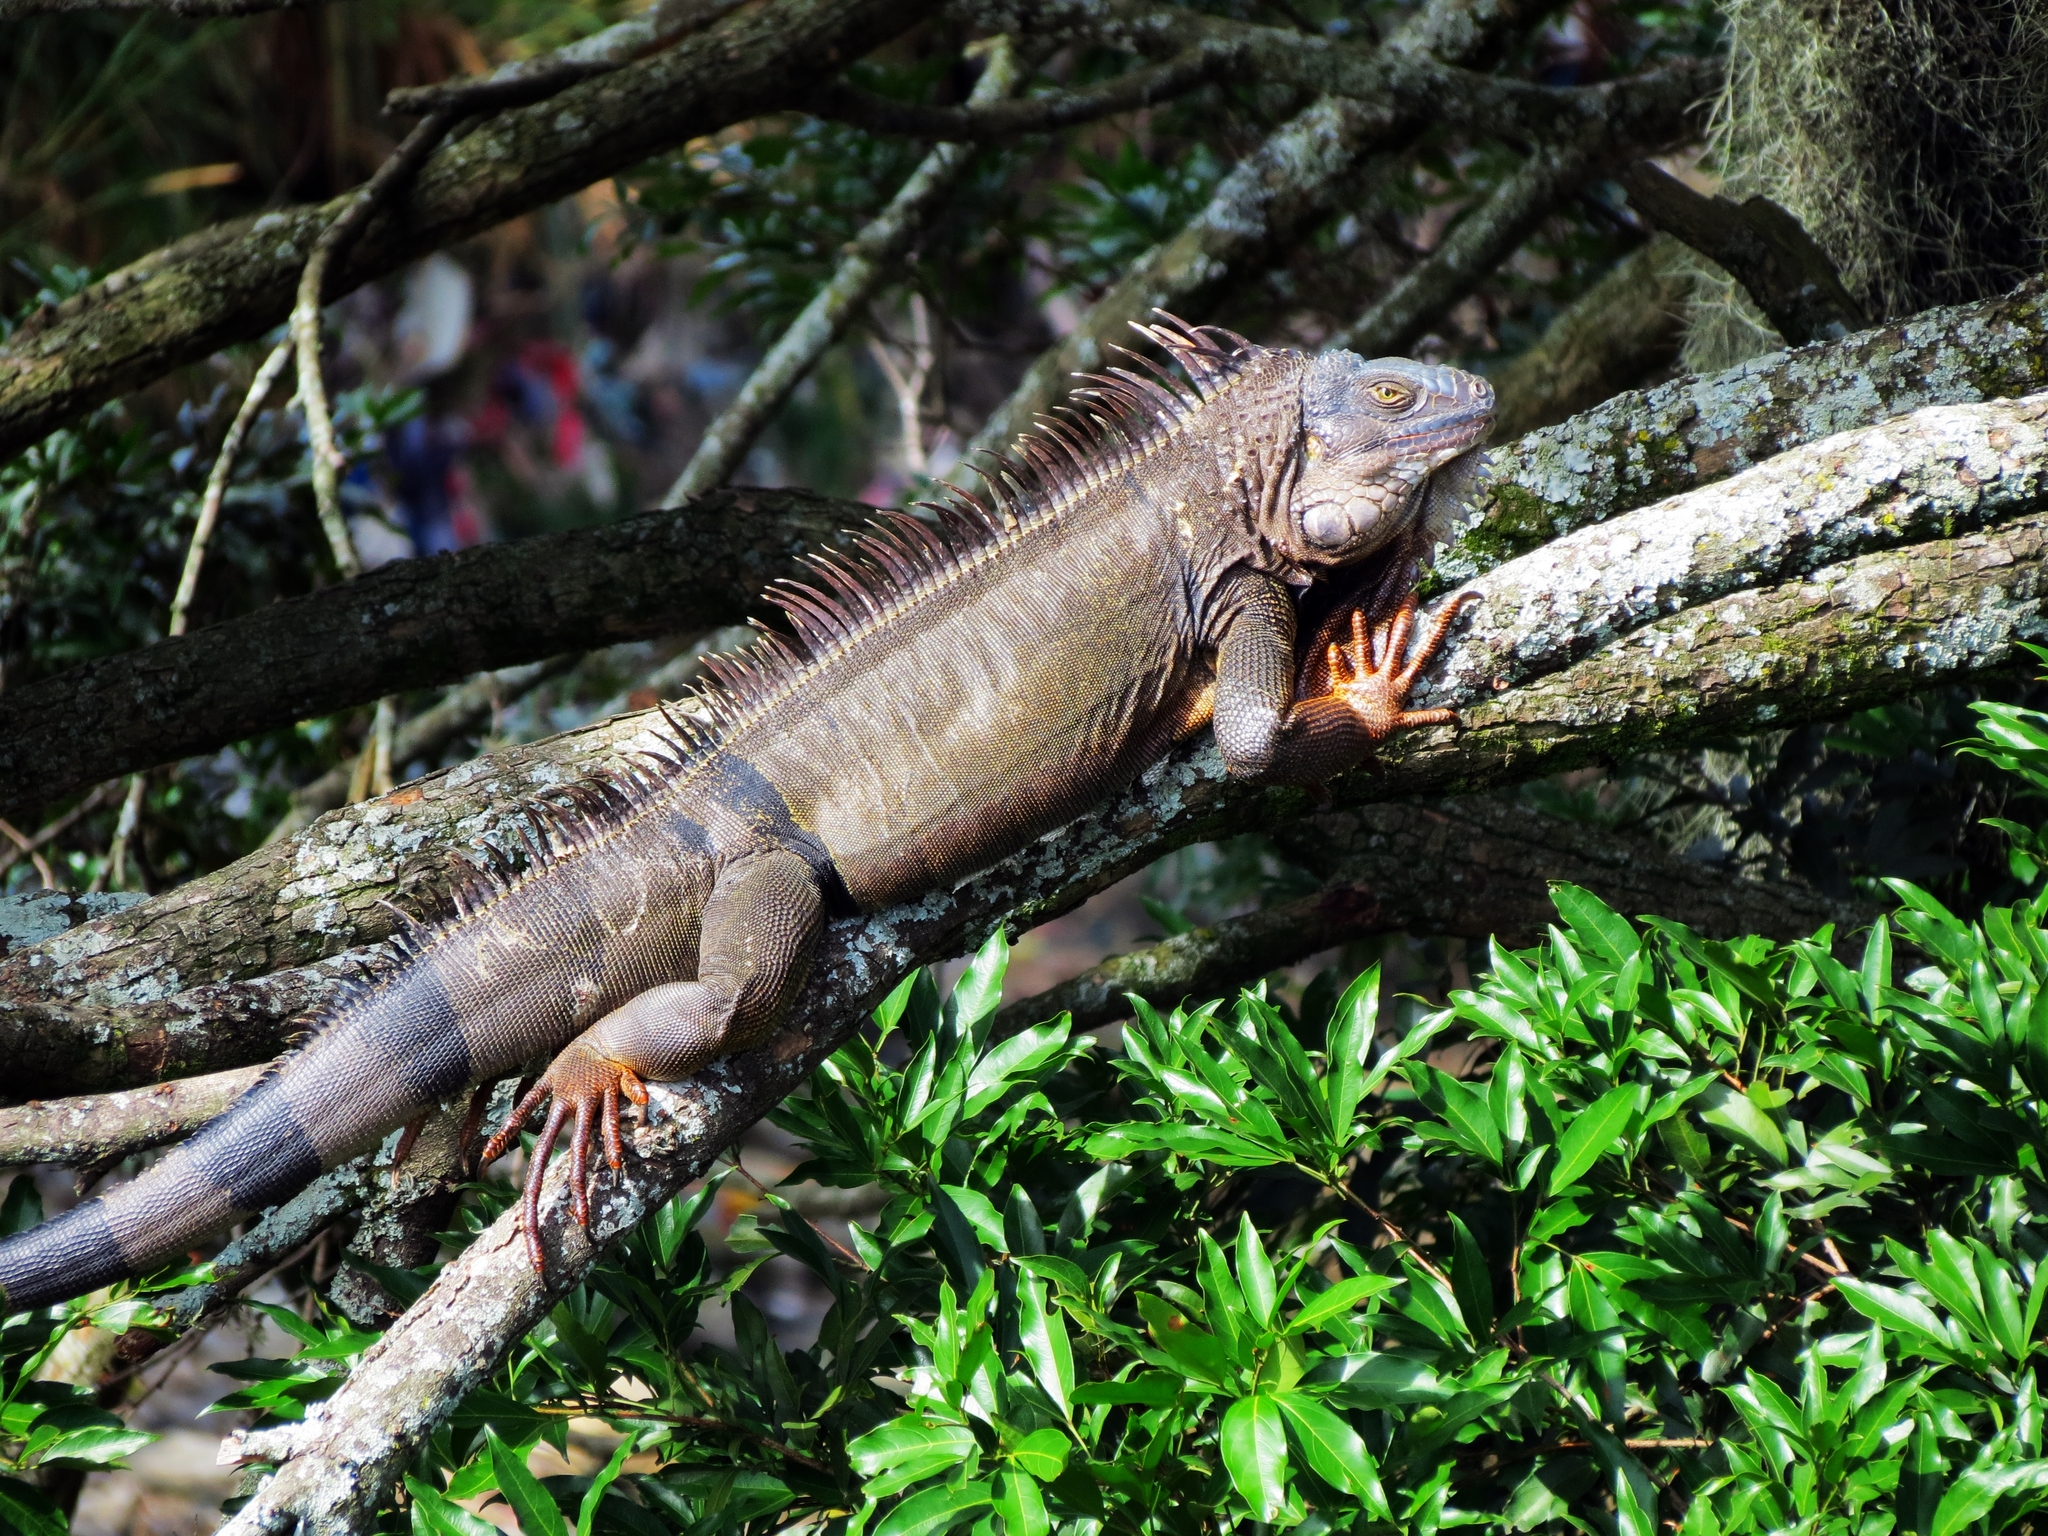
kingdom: Animalia
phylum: Chordata
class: Squamata
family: Iguanidae
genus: Iguana
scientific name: Iguana iguana
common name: Green iguana
